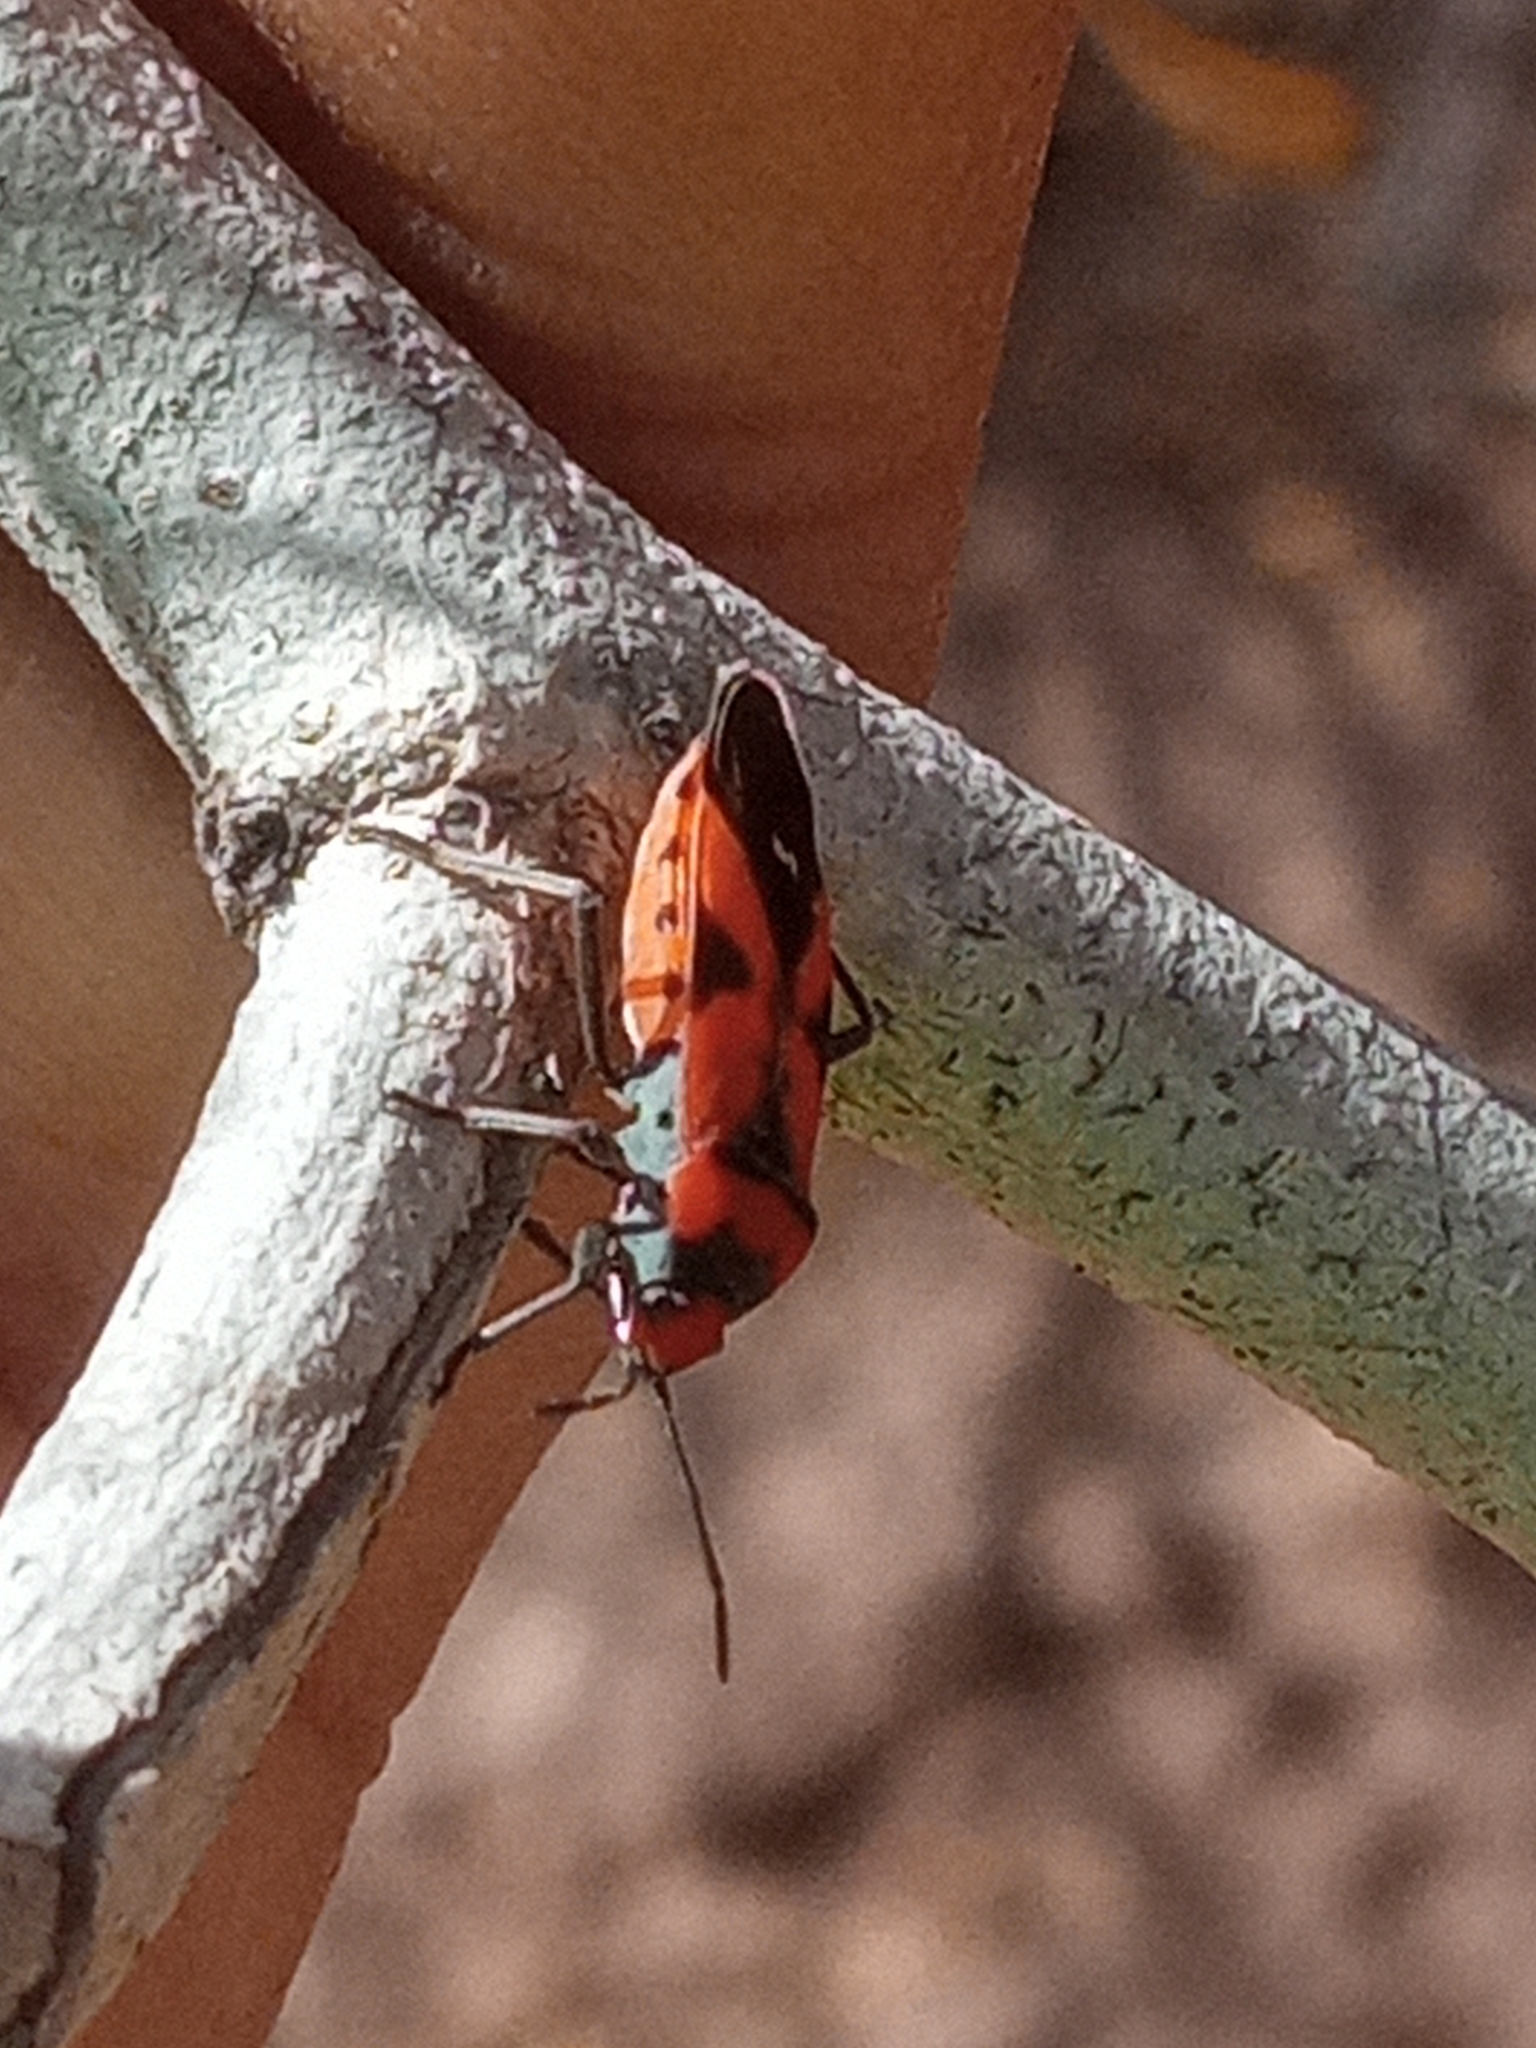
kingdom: Animalia
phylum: Arthropoda
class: Insecta
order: Hemiptera
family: Lygaeidae
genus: Lygaeus
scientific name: Lygaeus analis
